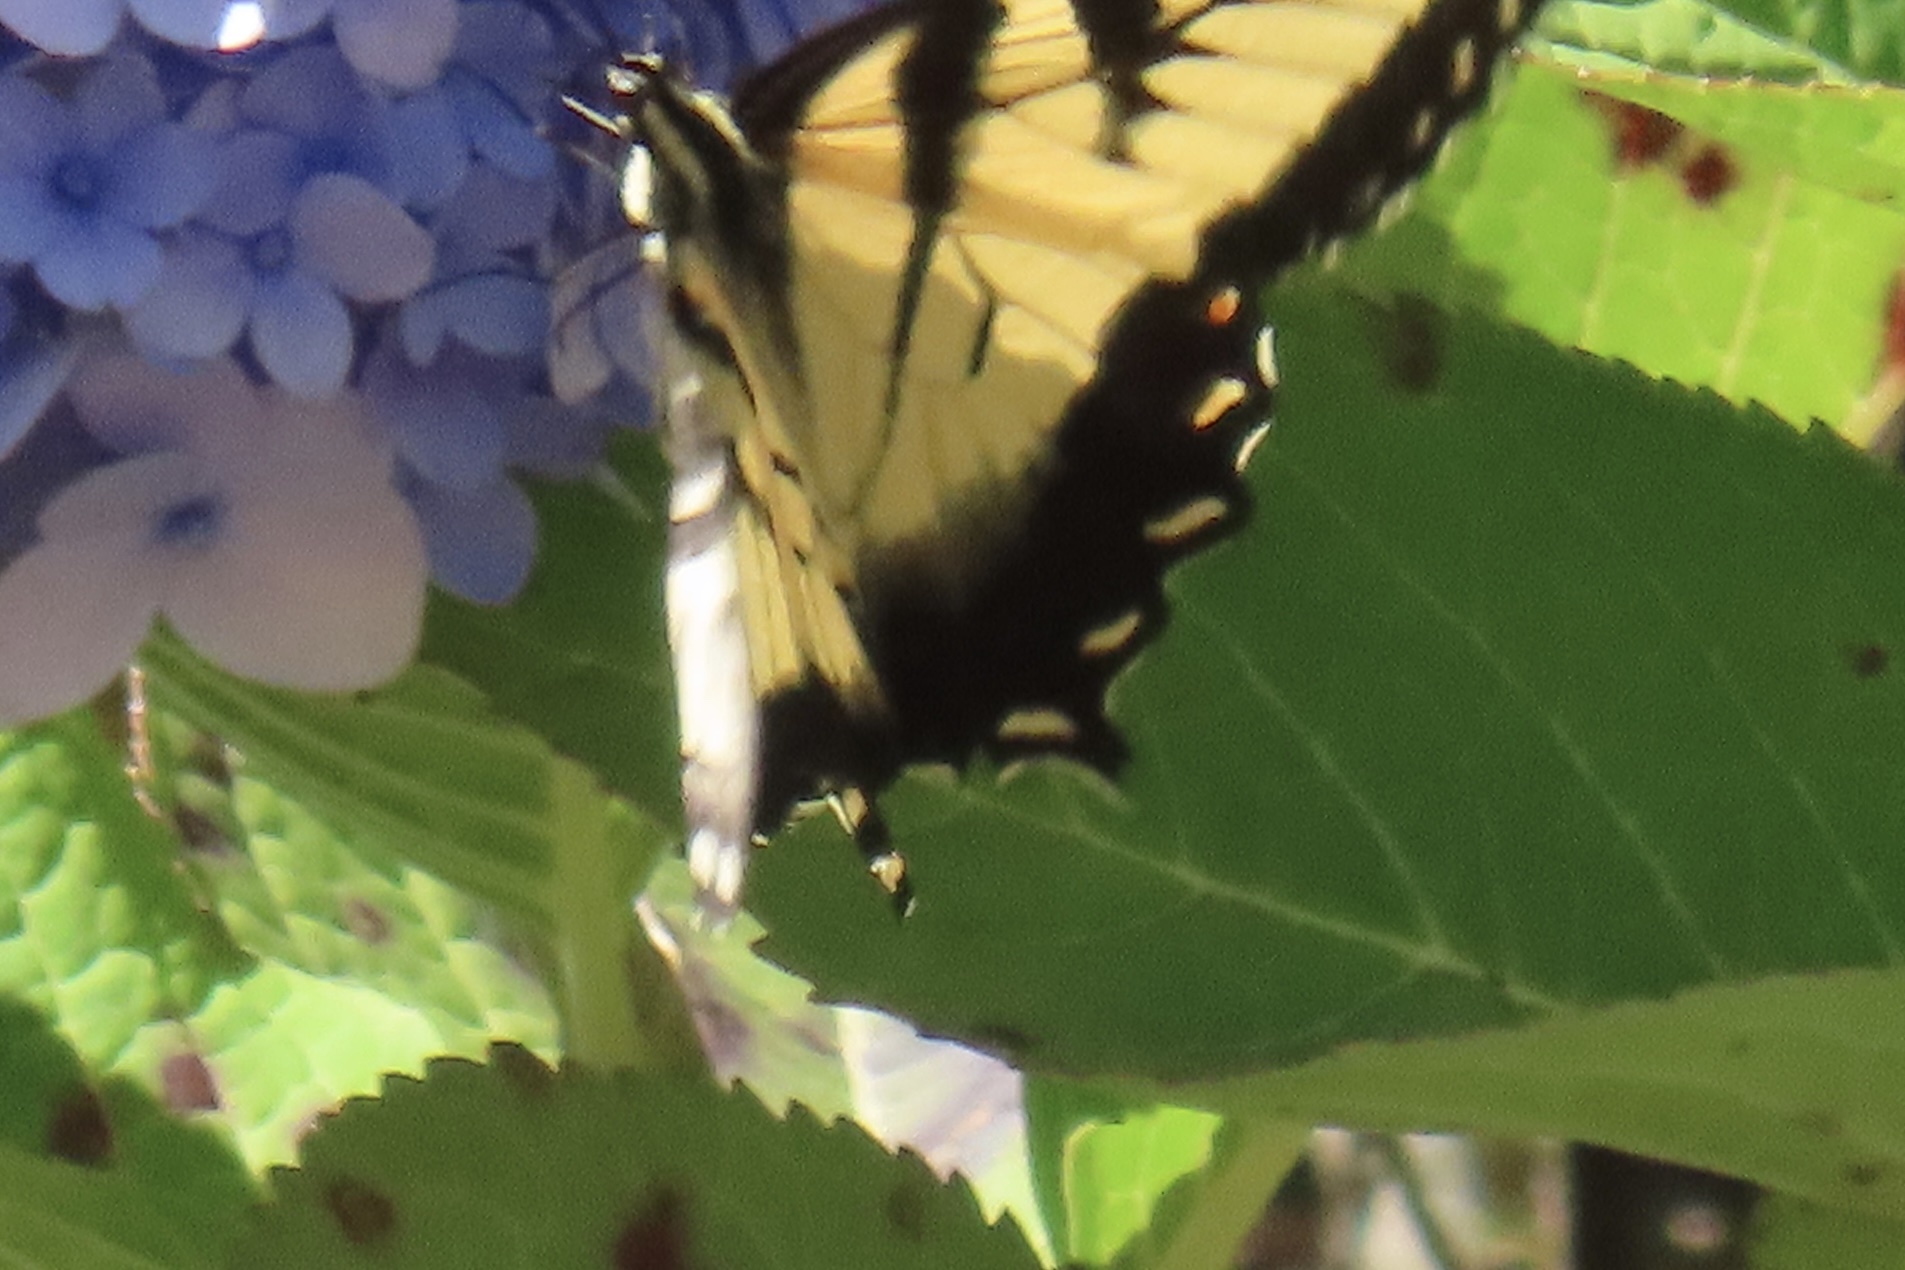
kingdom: Animalia
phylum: Arthropoda
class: Insecta
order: Lepidoptera
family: Papilionidae
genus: Papilio
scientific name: Papilio glaucus
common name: Tiger swallowtail
